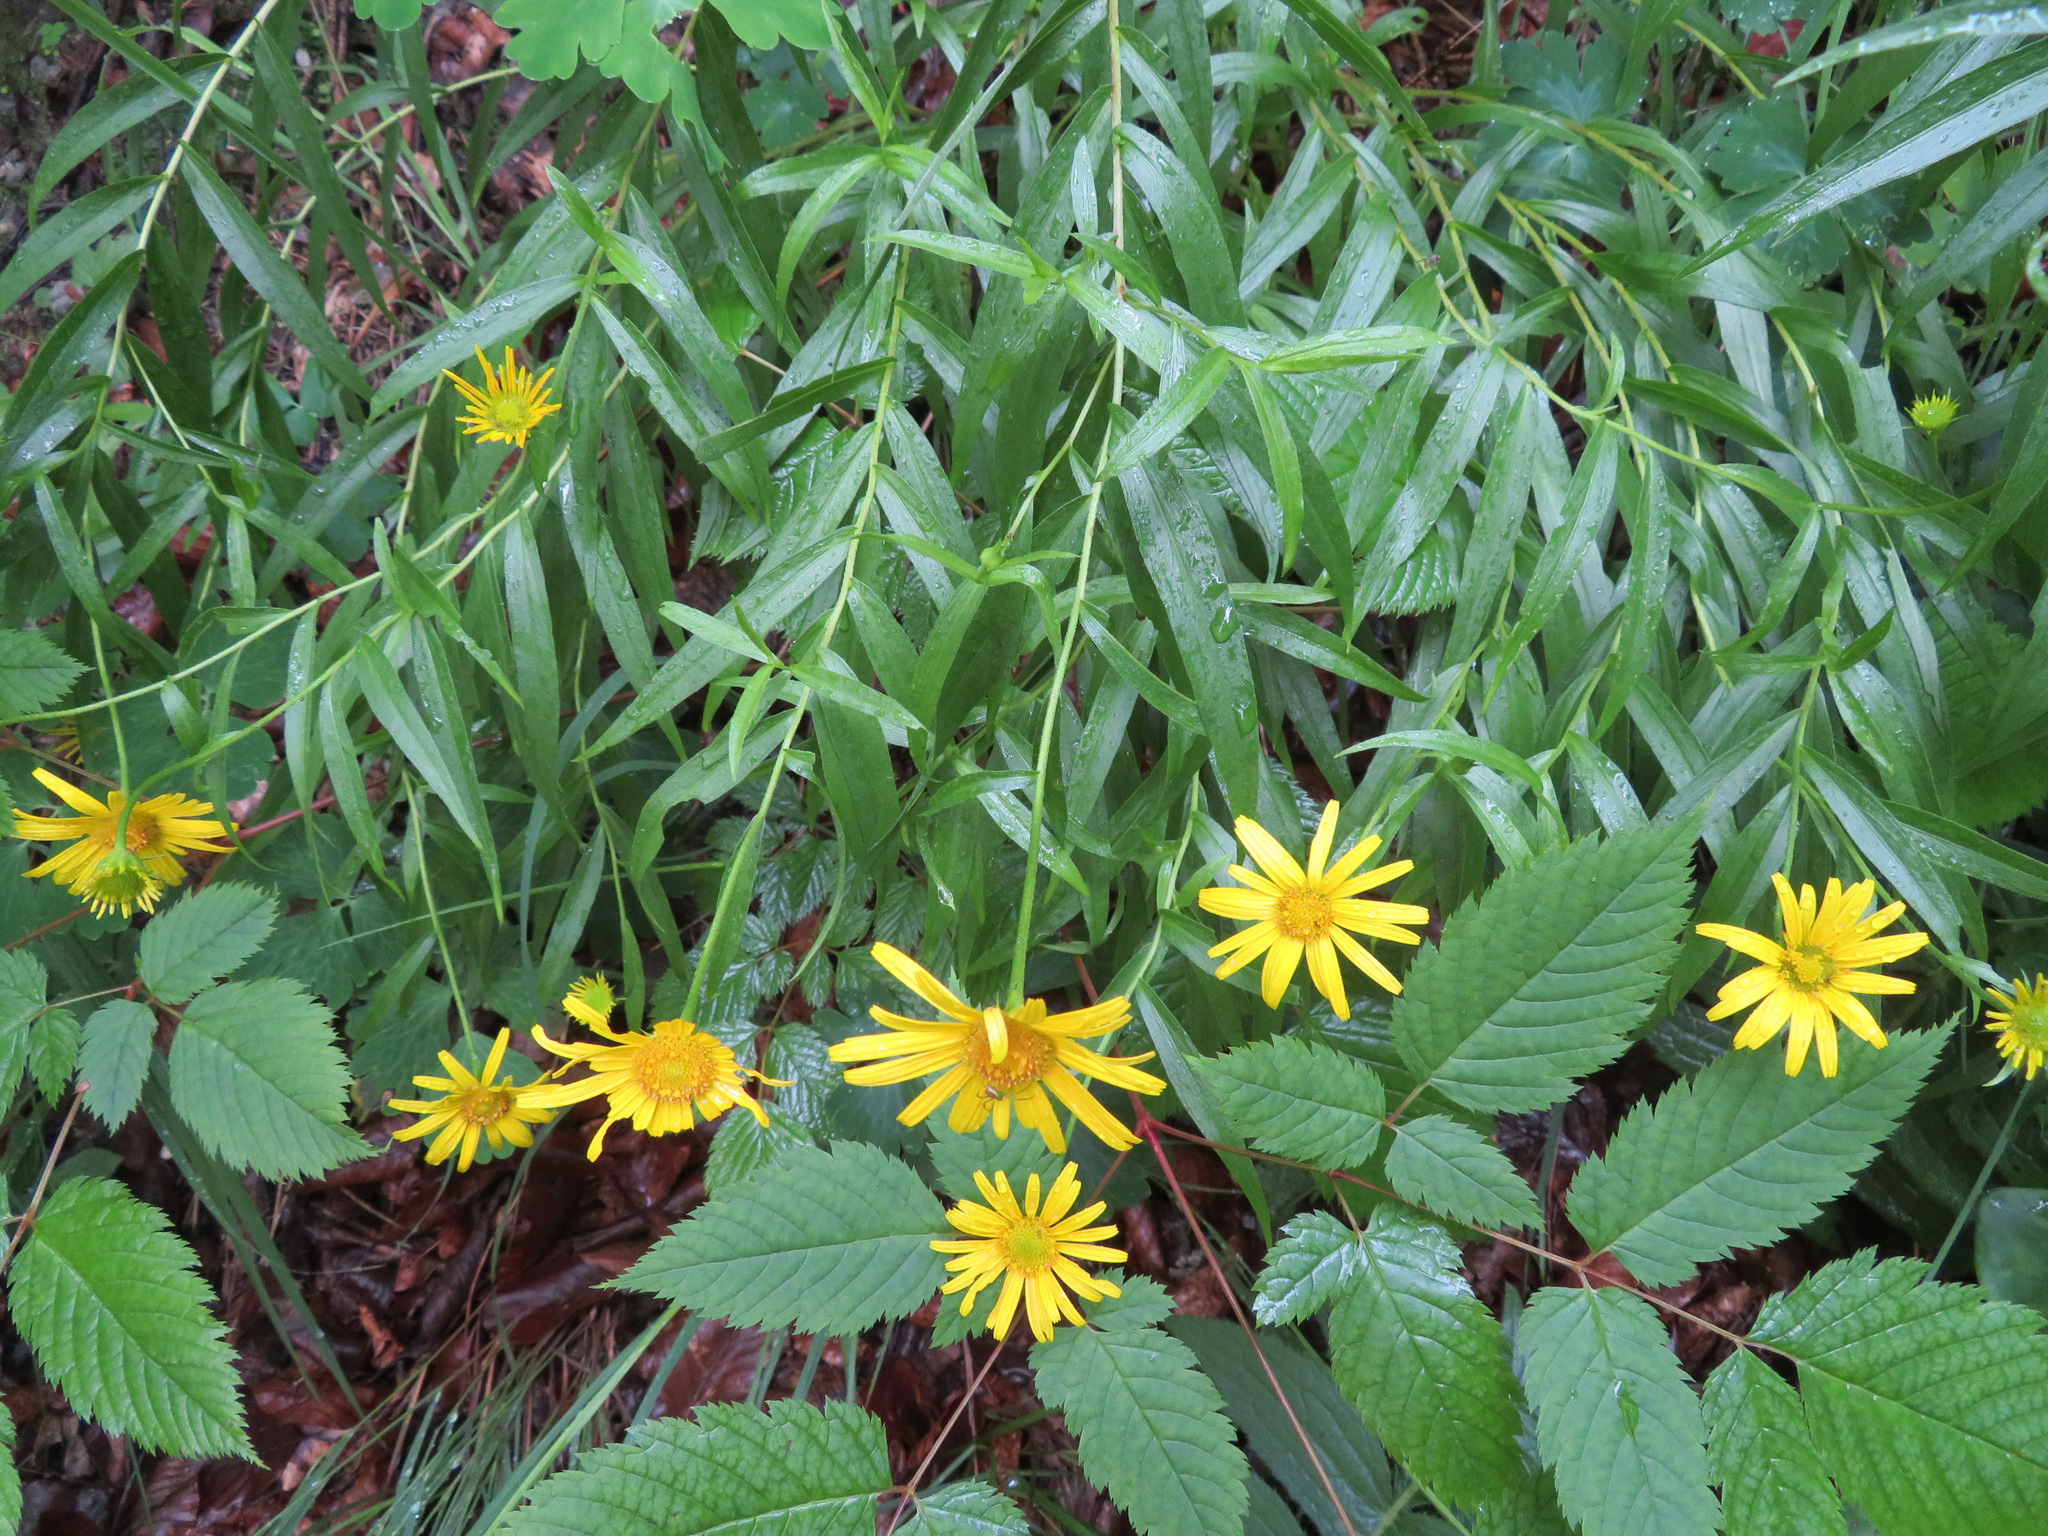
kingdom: Plantae
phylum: Tracheophyta
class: Magnoliopsida
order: Asterales
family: Asteraceae
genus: Buphthalmum
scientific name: Buphthalmum salicifolium
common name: Willow-leaved yellow-oxeye
